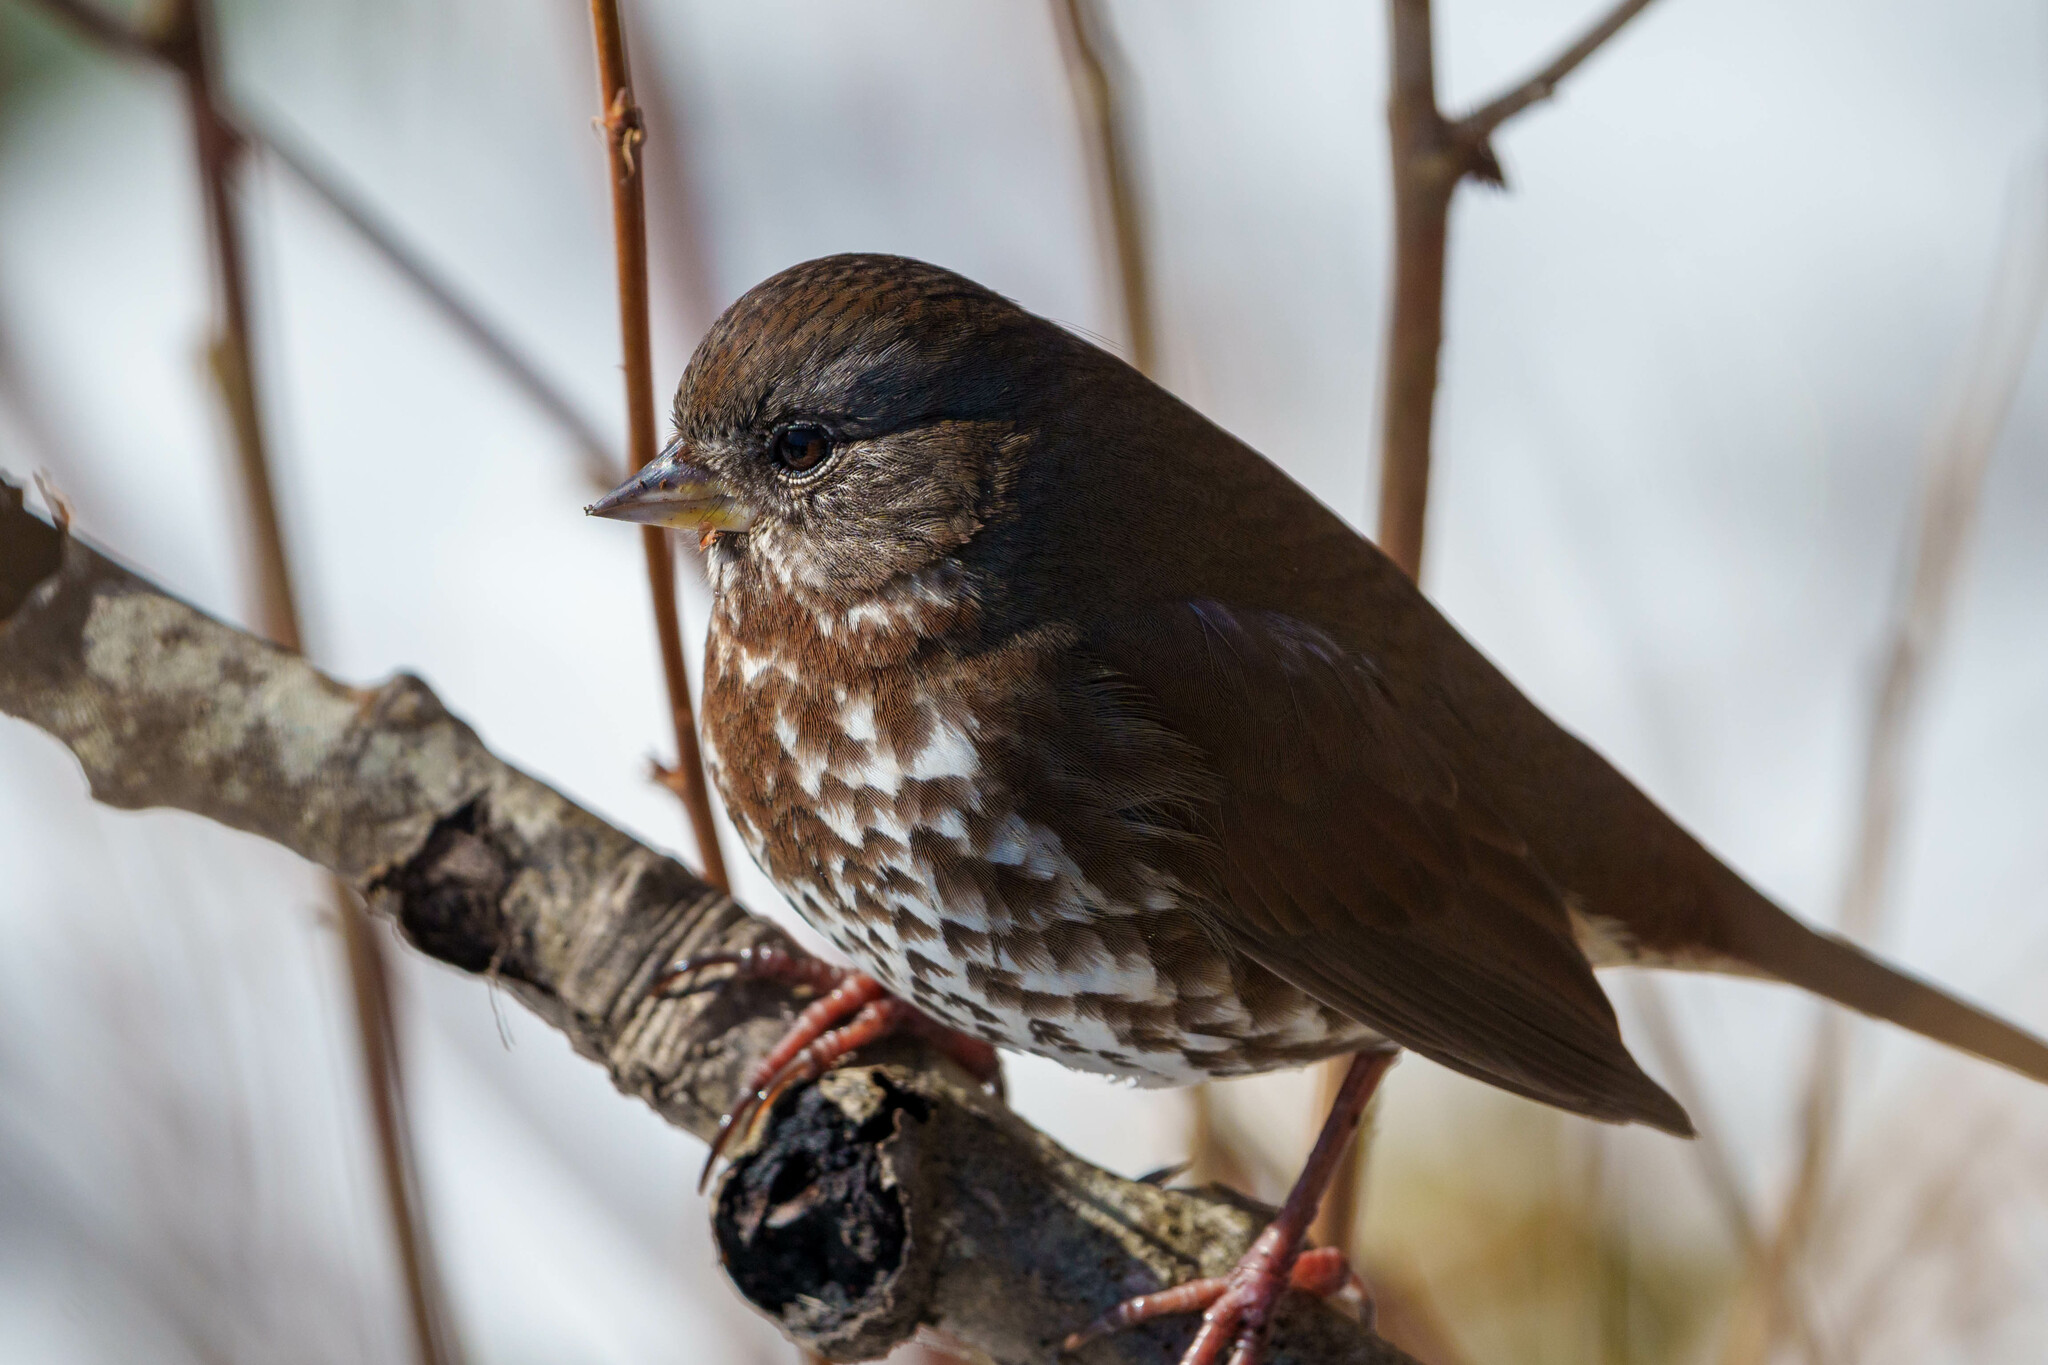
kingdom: Animalia
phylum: Chordata
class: Aves
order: Passeriformes
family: Passerellidae
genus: Passerella
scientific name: Passerella iliaca
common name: Fox sparrow
